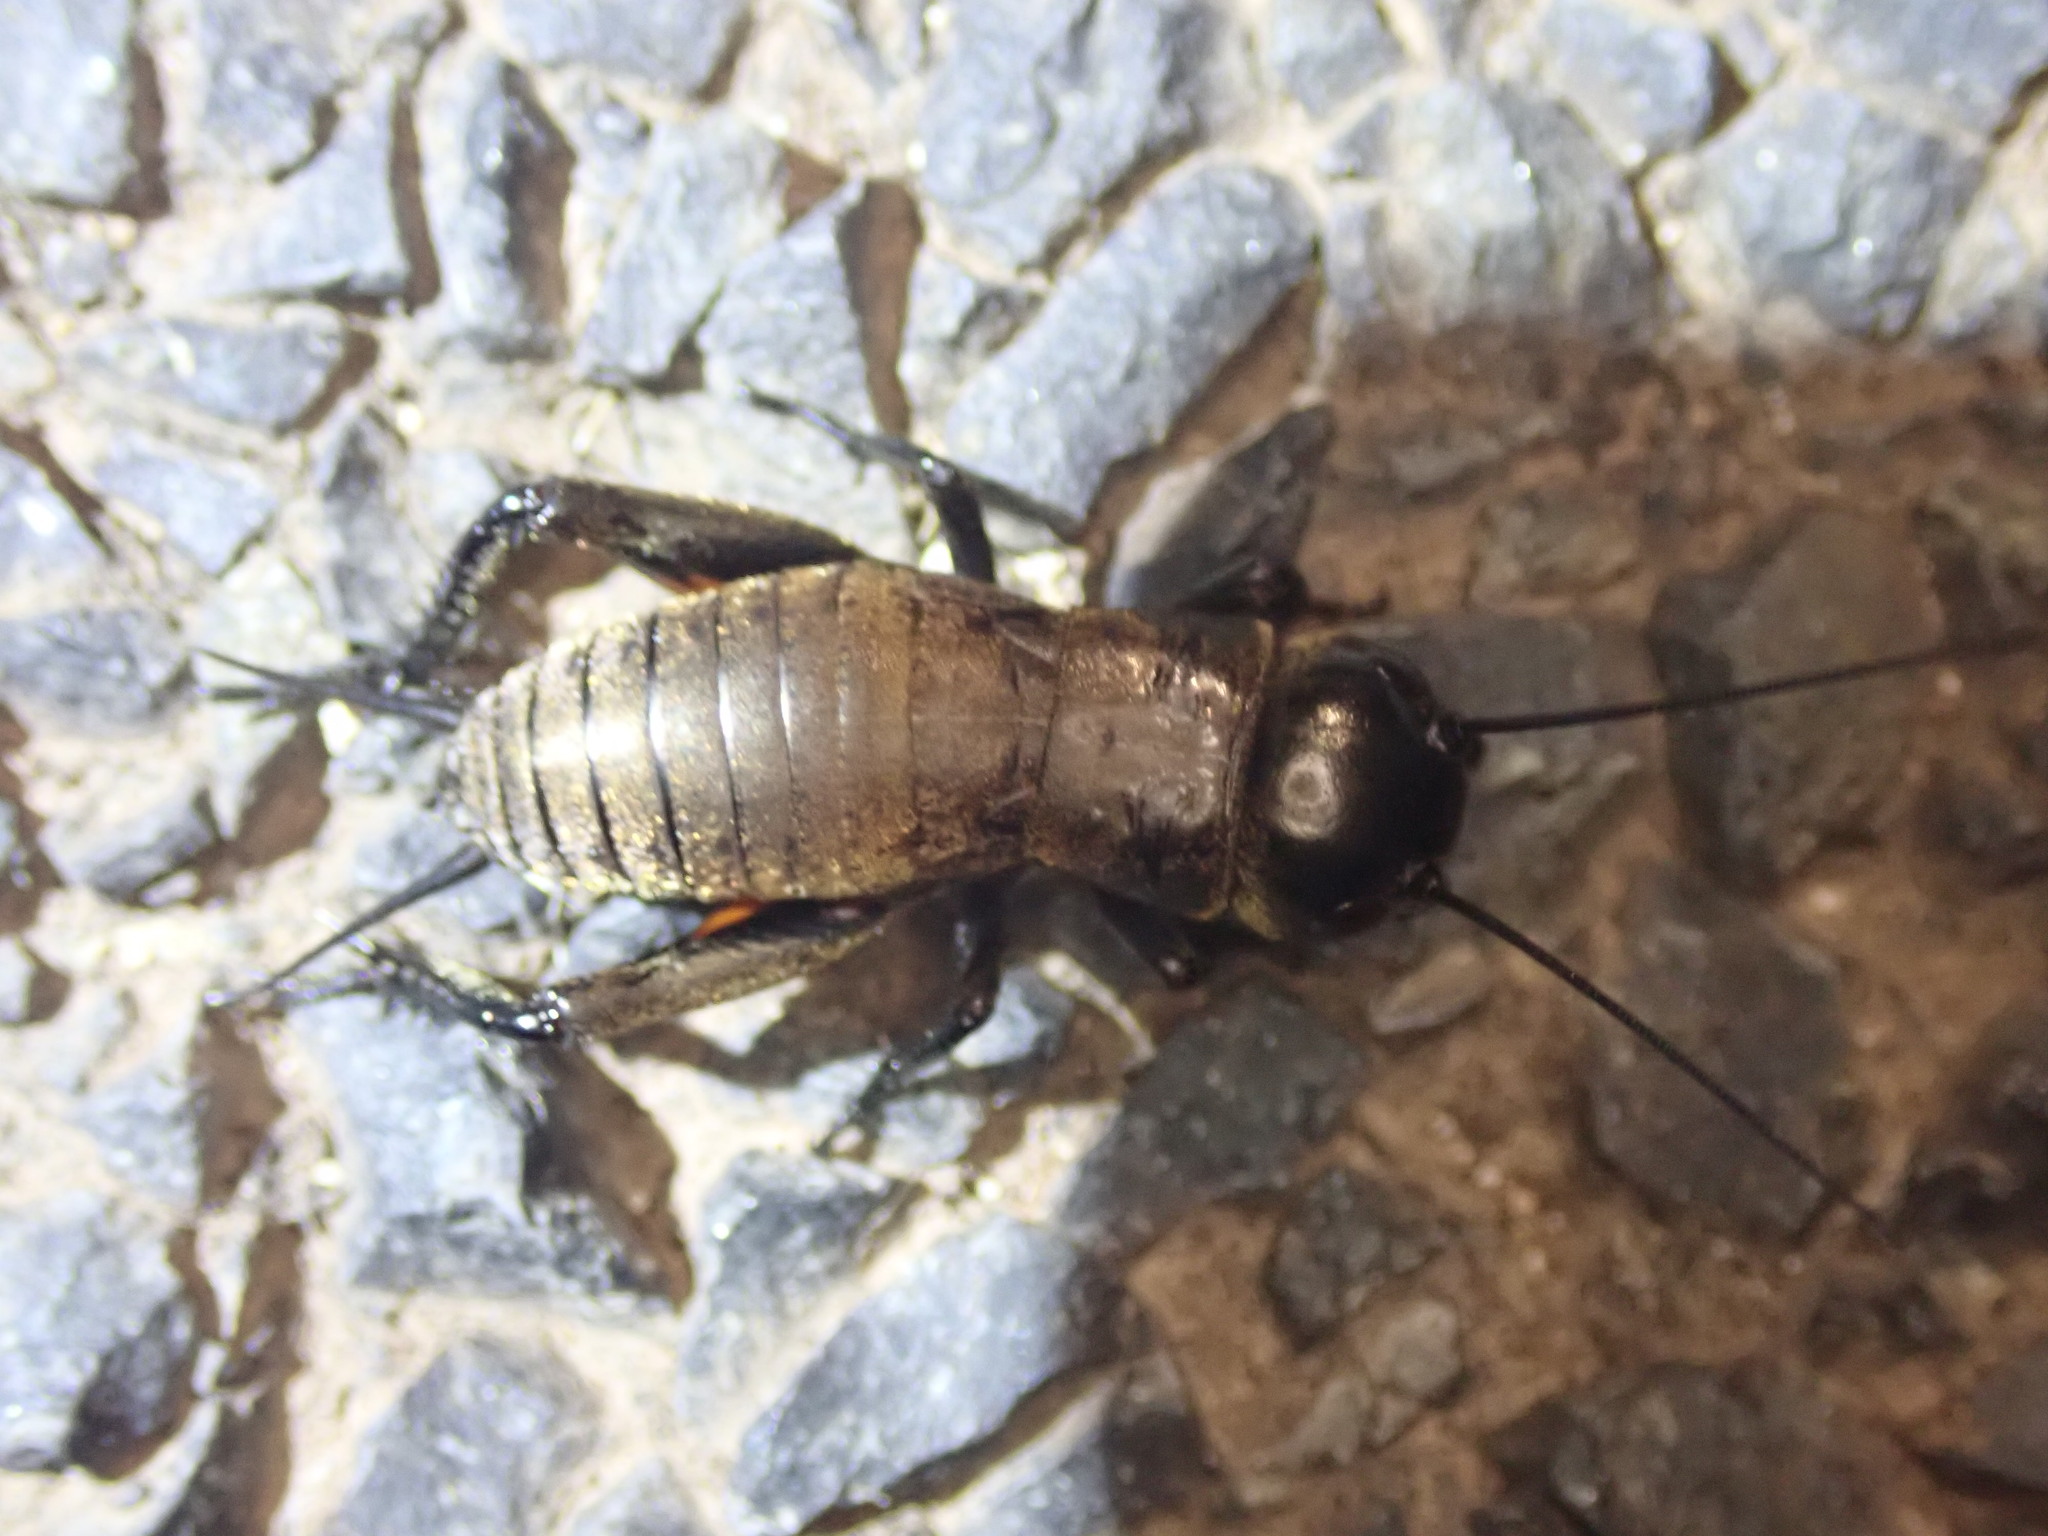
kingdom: Animalia
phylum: Arthropoda
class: Insecta
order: Orthoptera
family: Gryllidae
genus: Gryllus
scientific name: Gryllus campestris
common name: Field cricket
